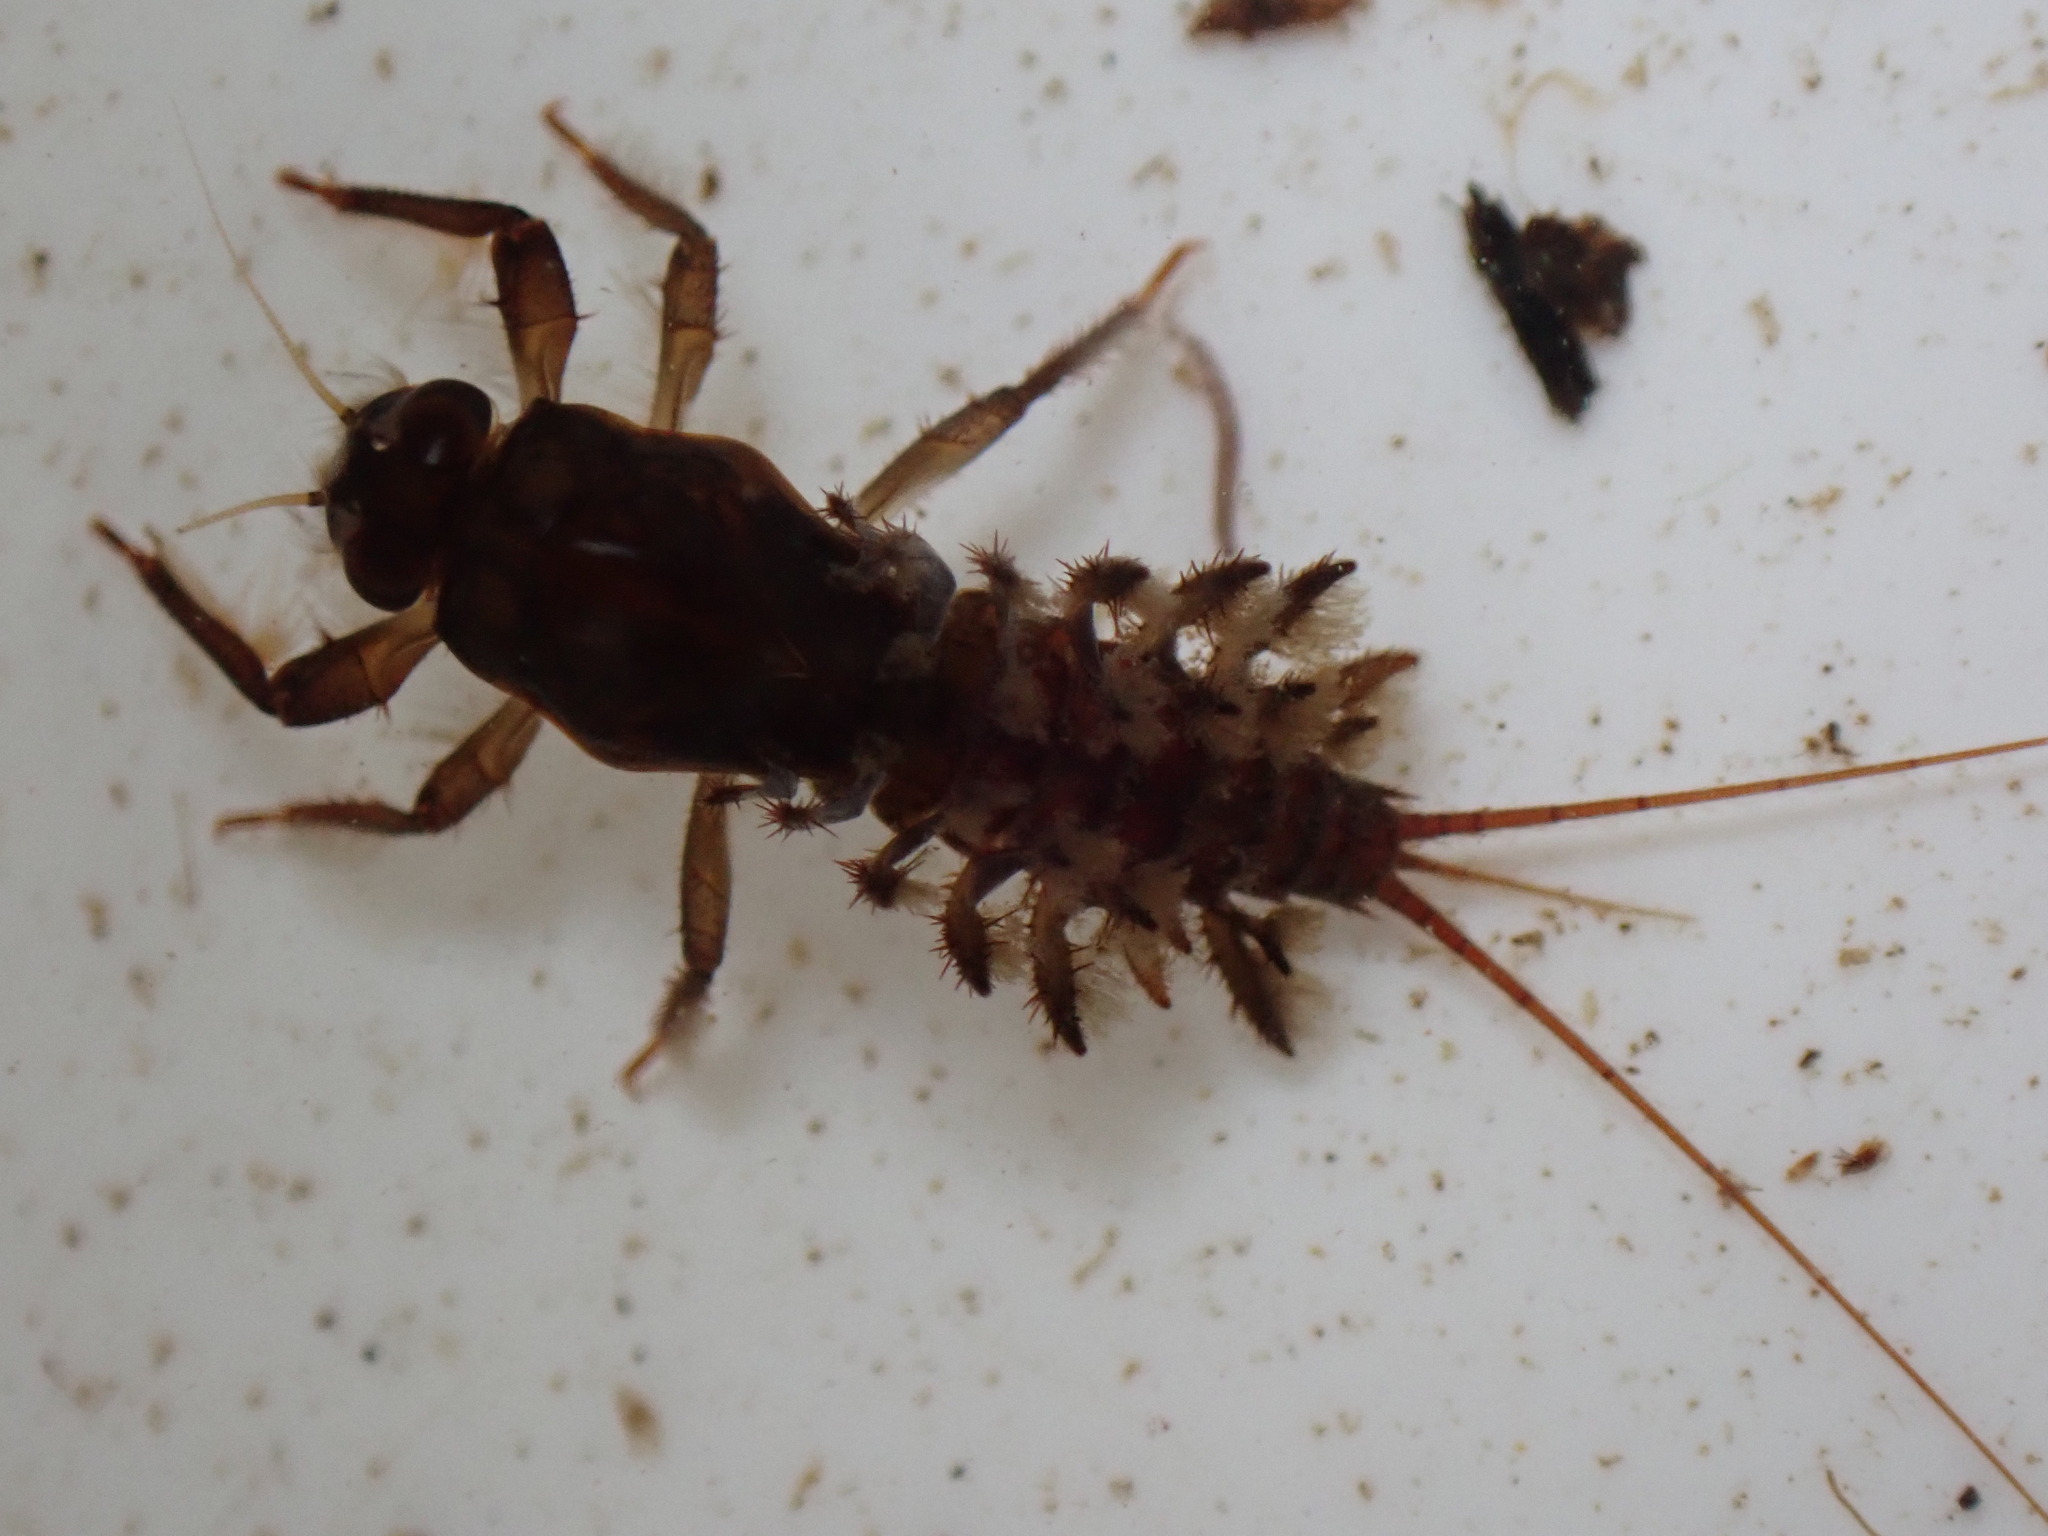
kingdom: Animalia
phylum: Arthropoda
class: Insecta
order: Ephemeroptera
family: Coloburiscidae
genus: Coloburiscus
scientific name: Coloburiscus humeralis
